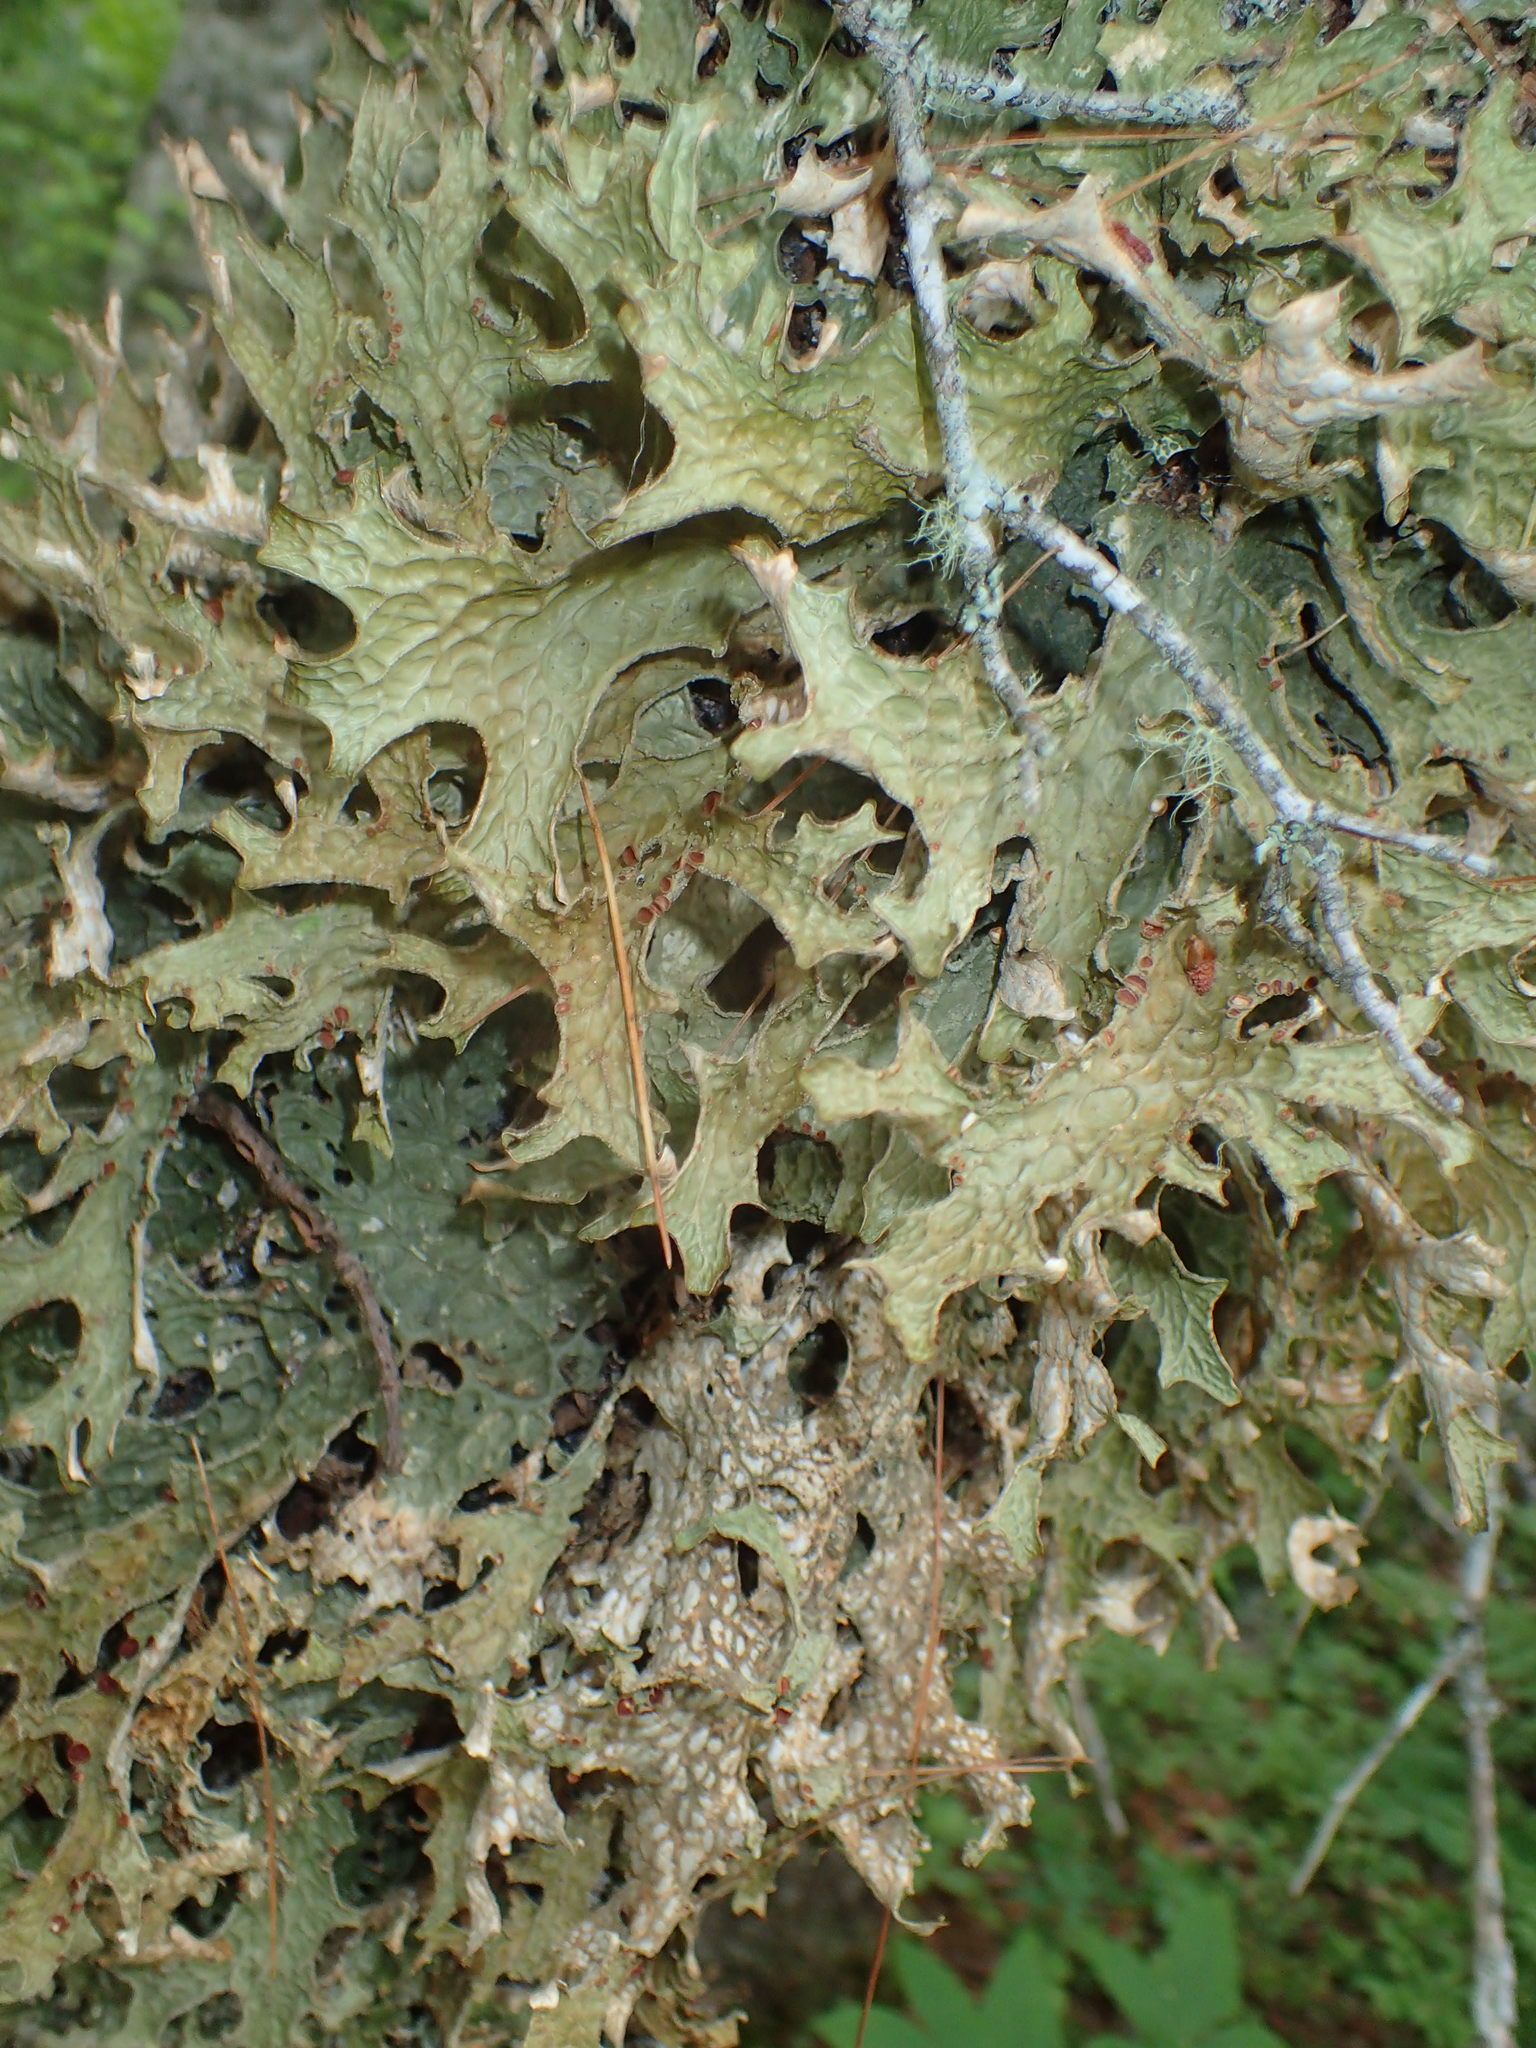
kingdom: Fungi
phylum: Ascomycota
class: Lecanoromycetes
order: Peltigerales
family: Lobariaceae
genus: Lobaria
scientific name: Lobaria pulmonaria
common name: Lungwort
